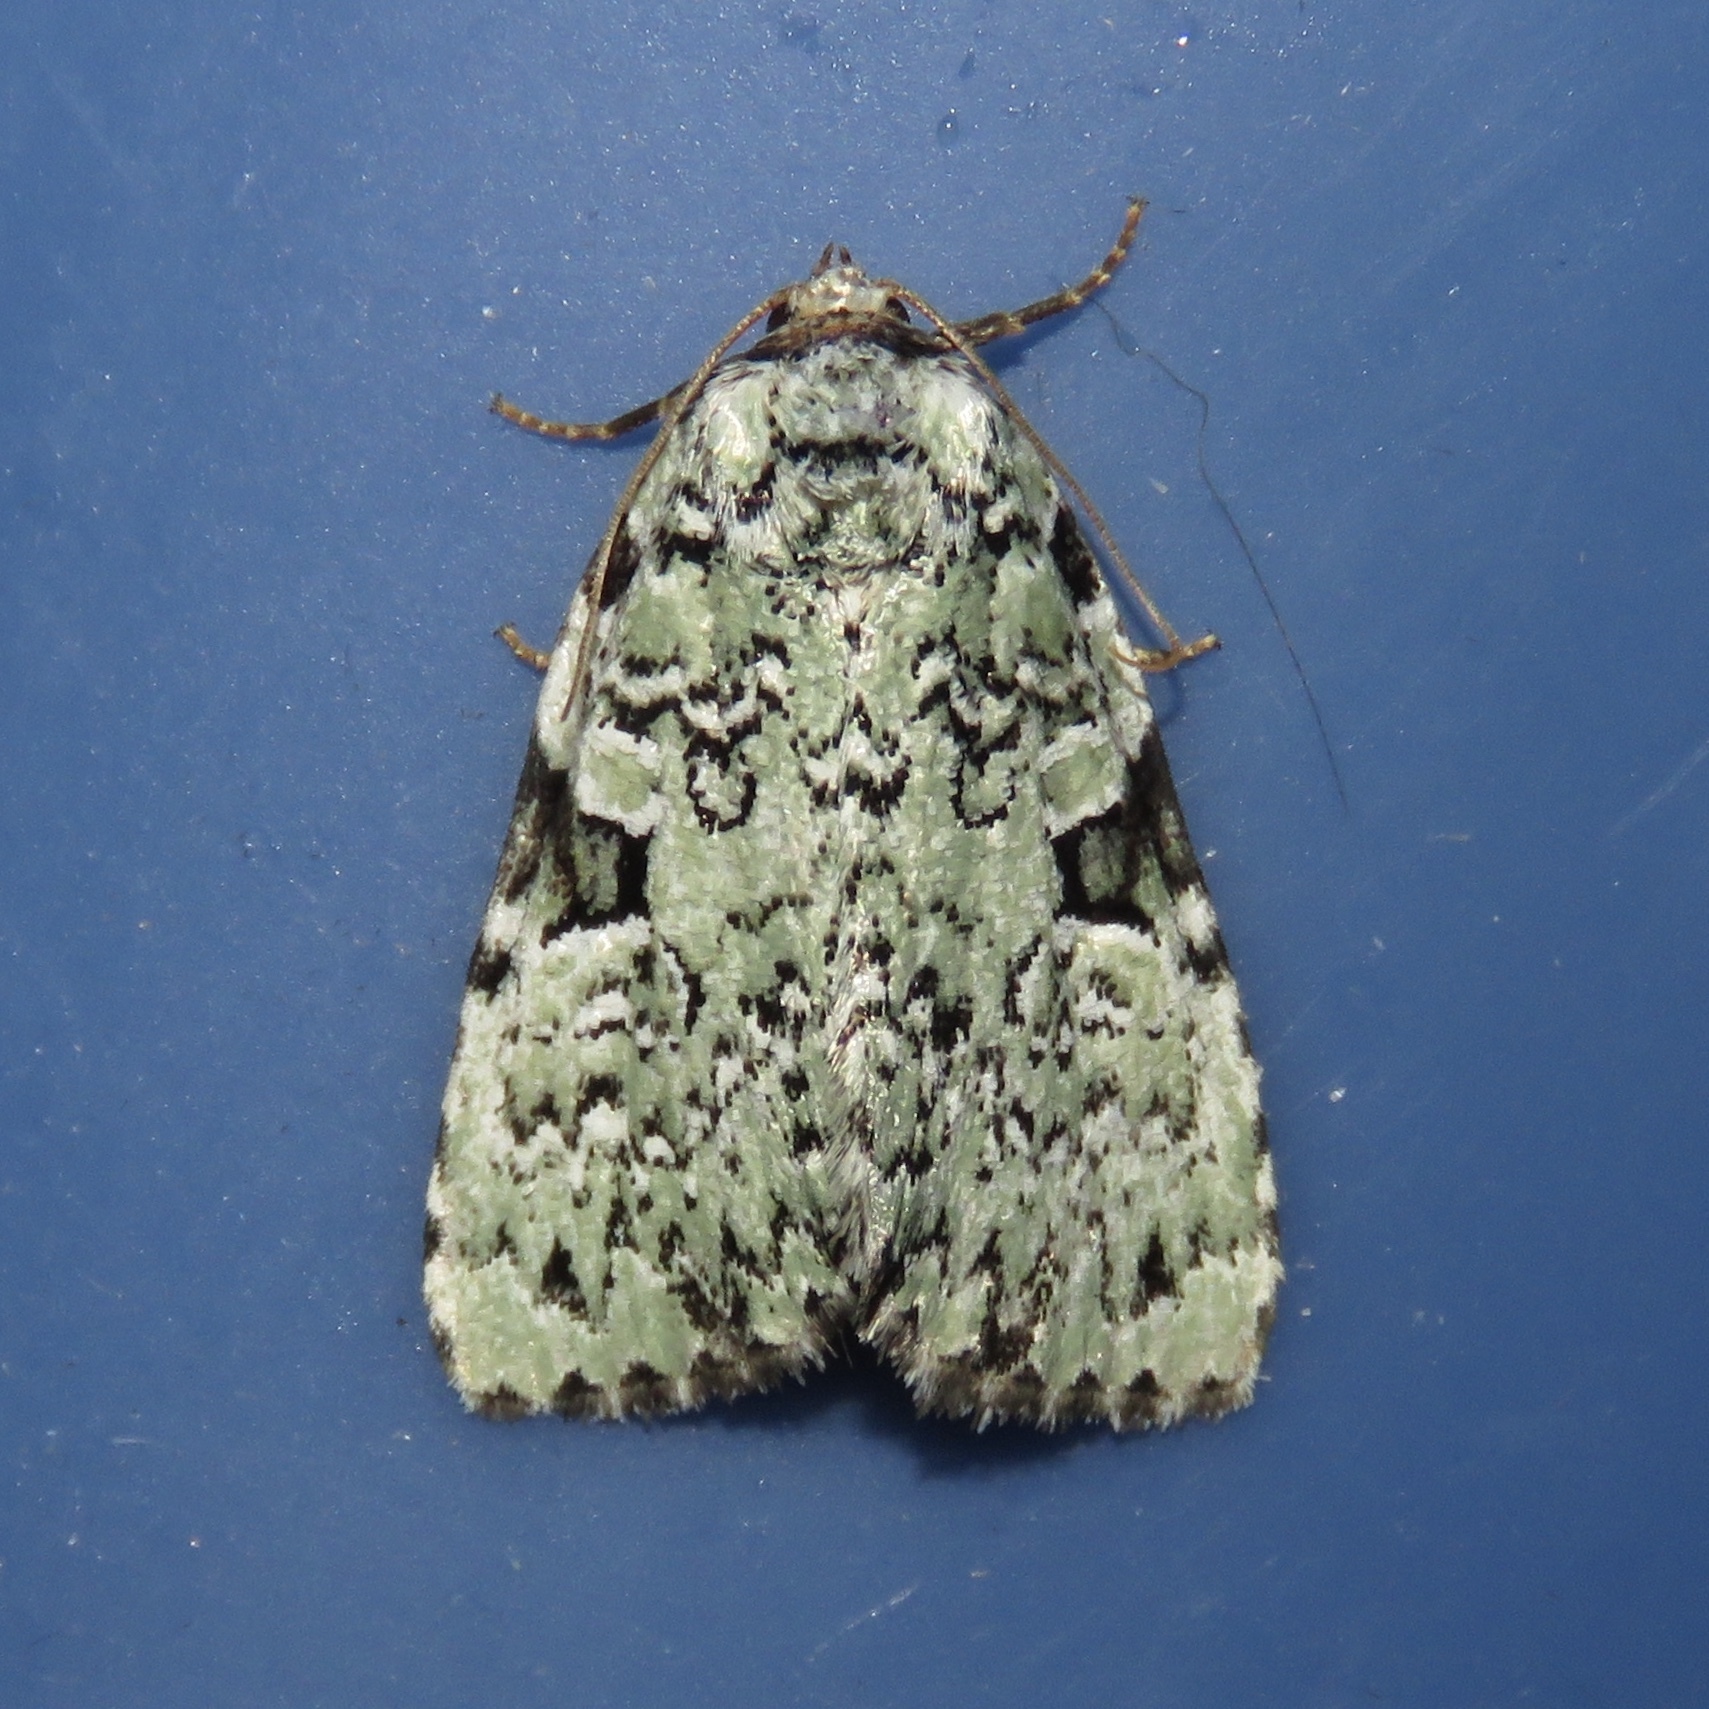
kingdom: Animalia
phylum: Arthropoda
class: Insecta
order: Lepidoptera
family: Noctuidae
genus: Leuconycta
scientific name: Leuconycta diphteroides
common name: Green leuconycta moth
